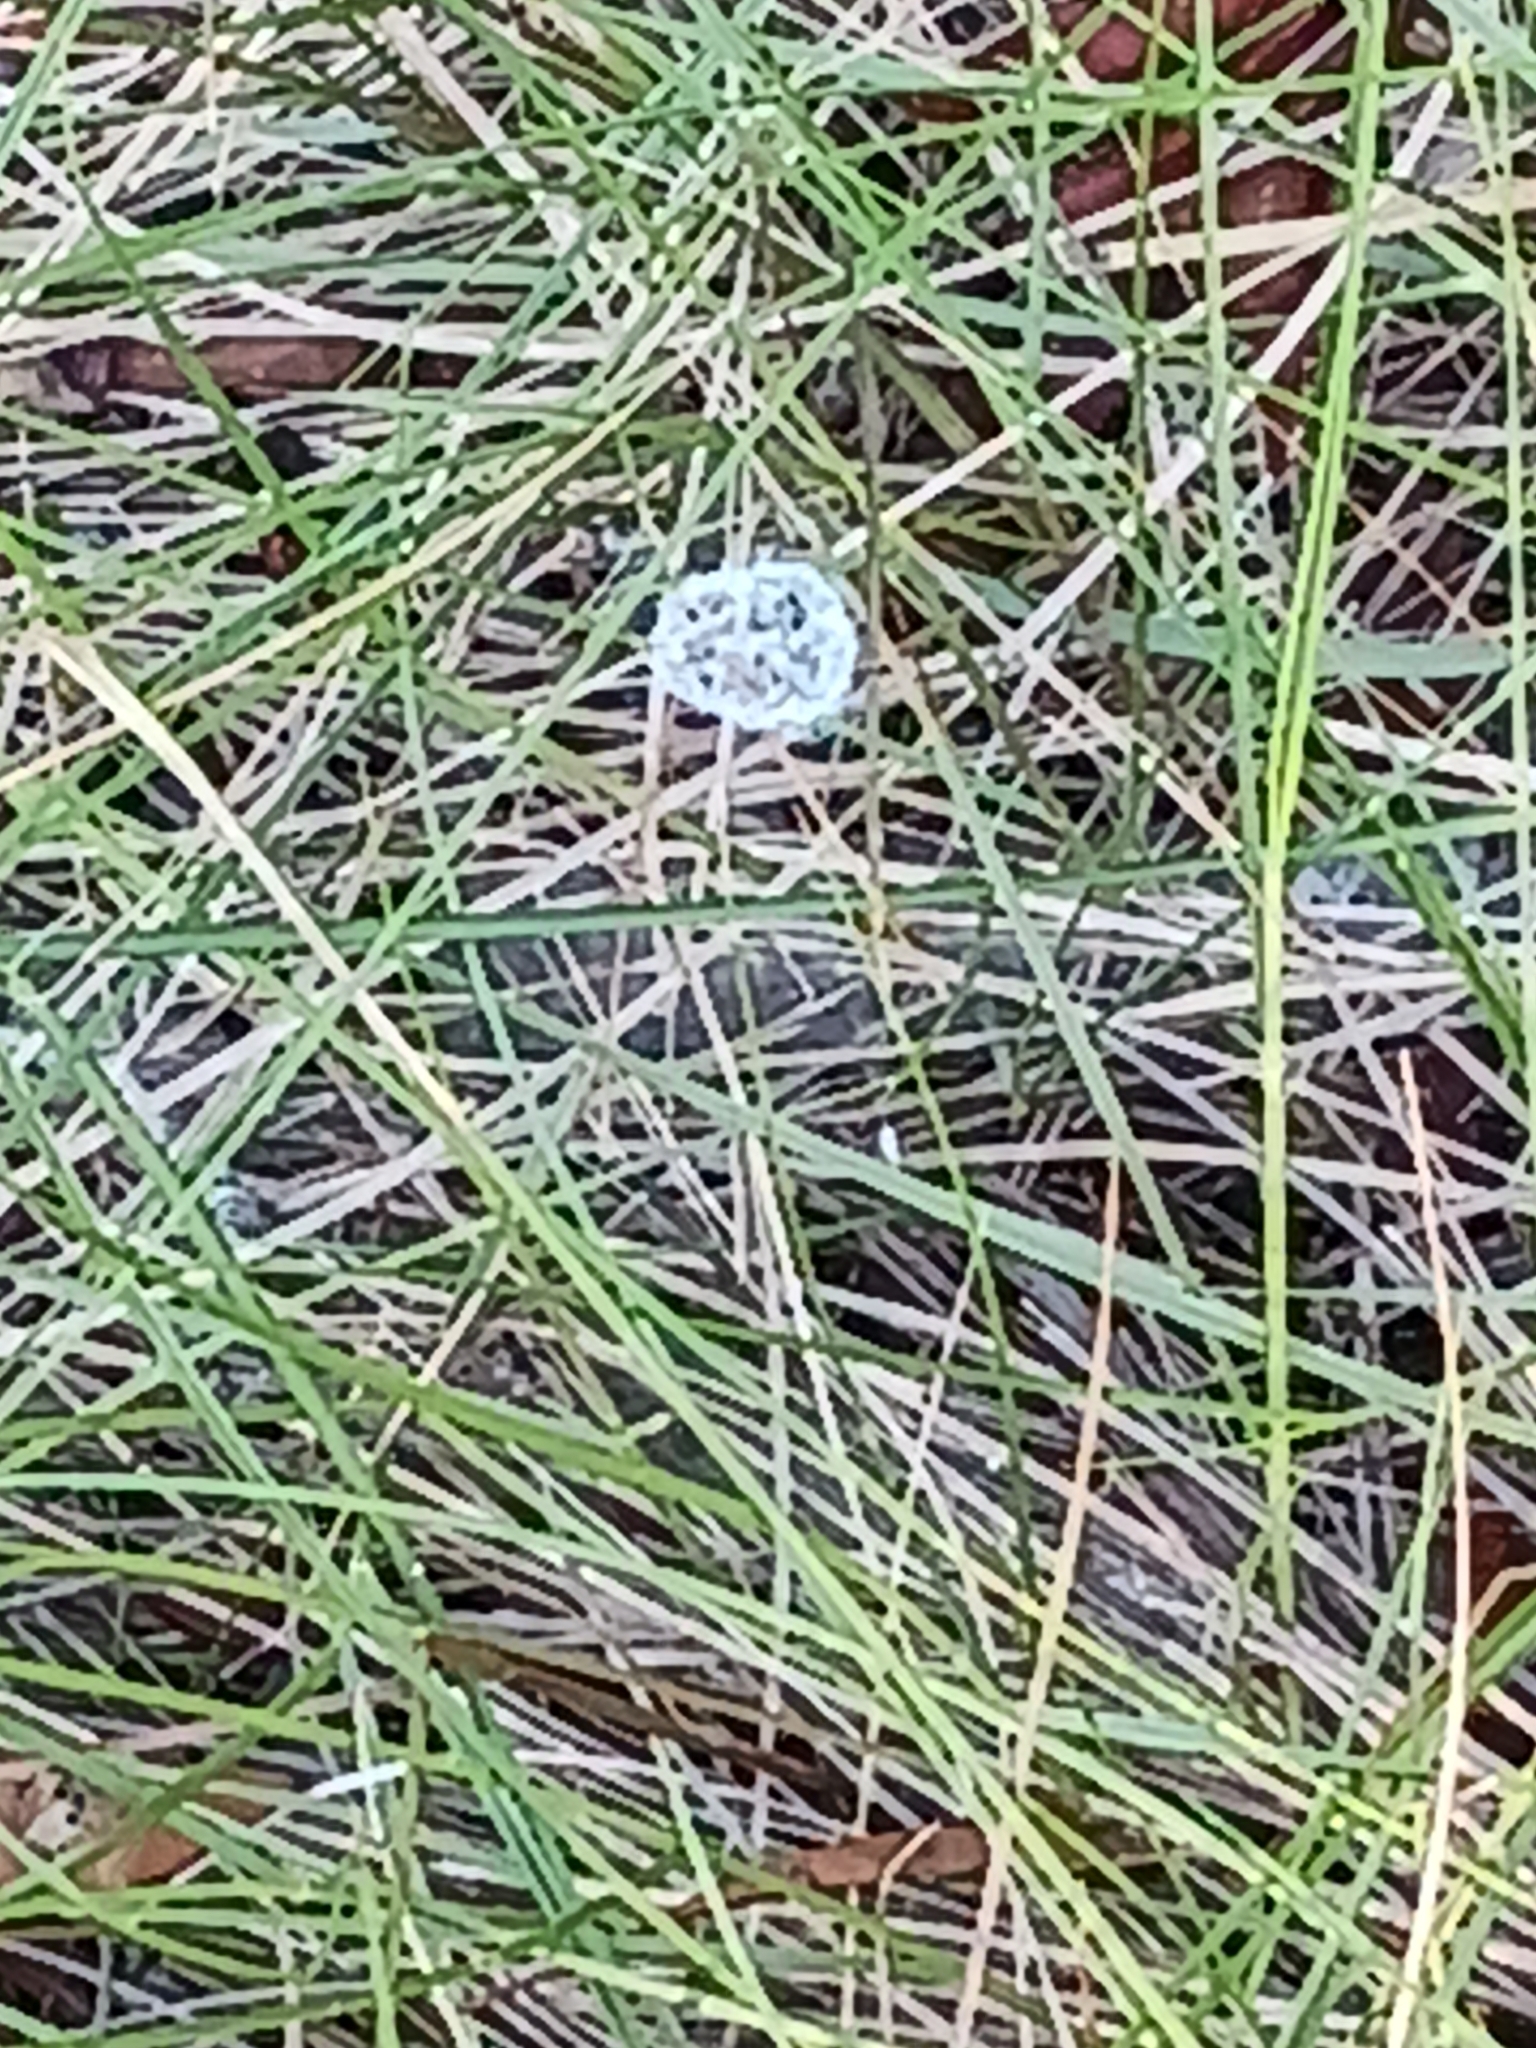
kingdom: Animalia
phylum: Arthropoda
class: Arachnida
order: Araneae
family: Araneidae
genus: Mangora
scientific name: Mangora gibberosa
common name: Lined orbweaver
